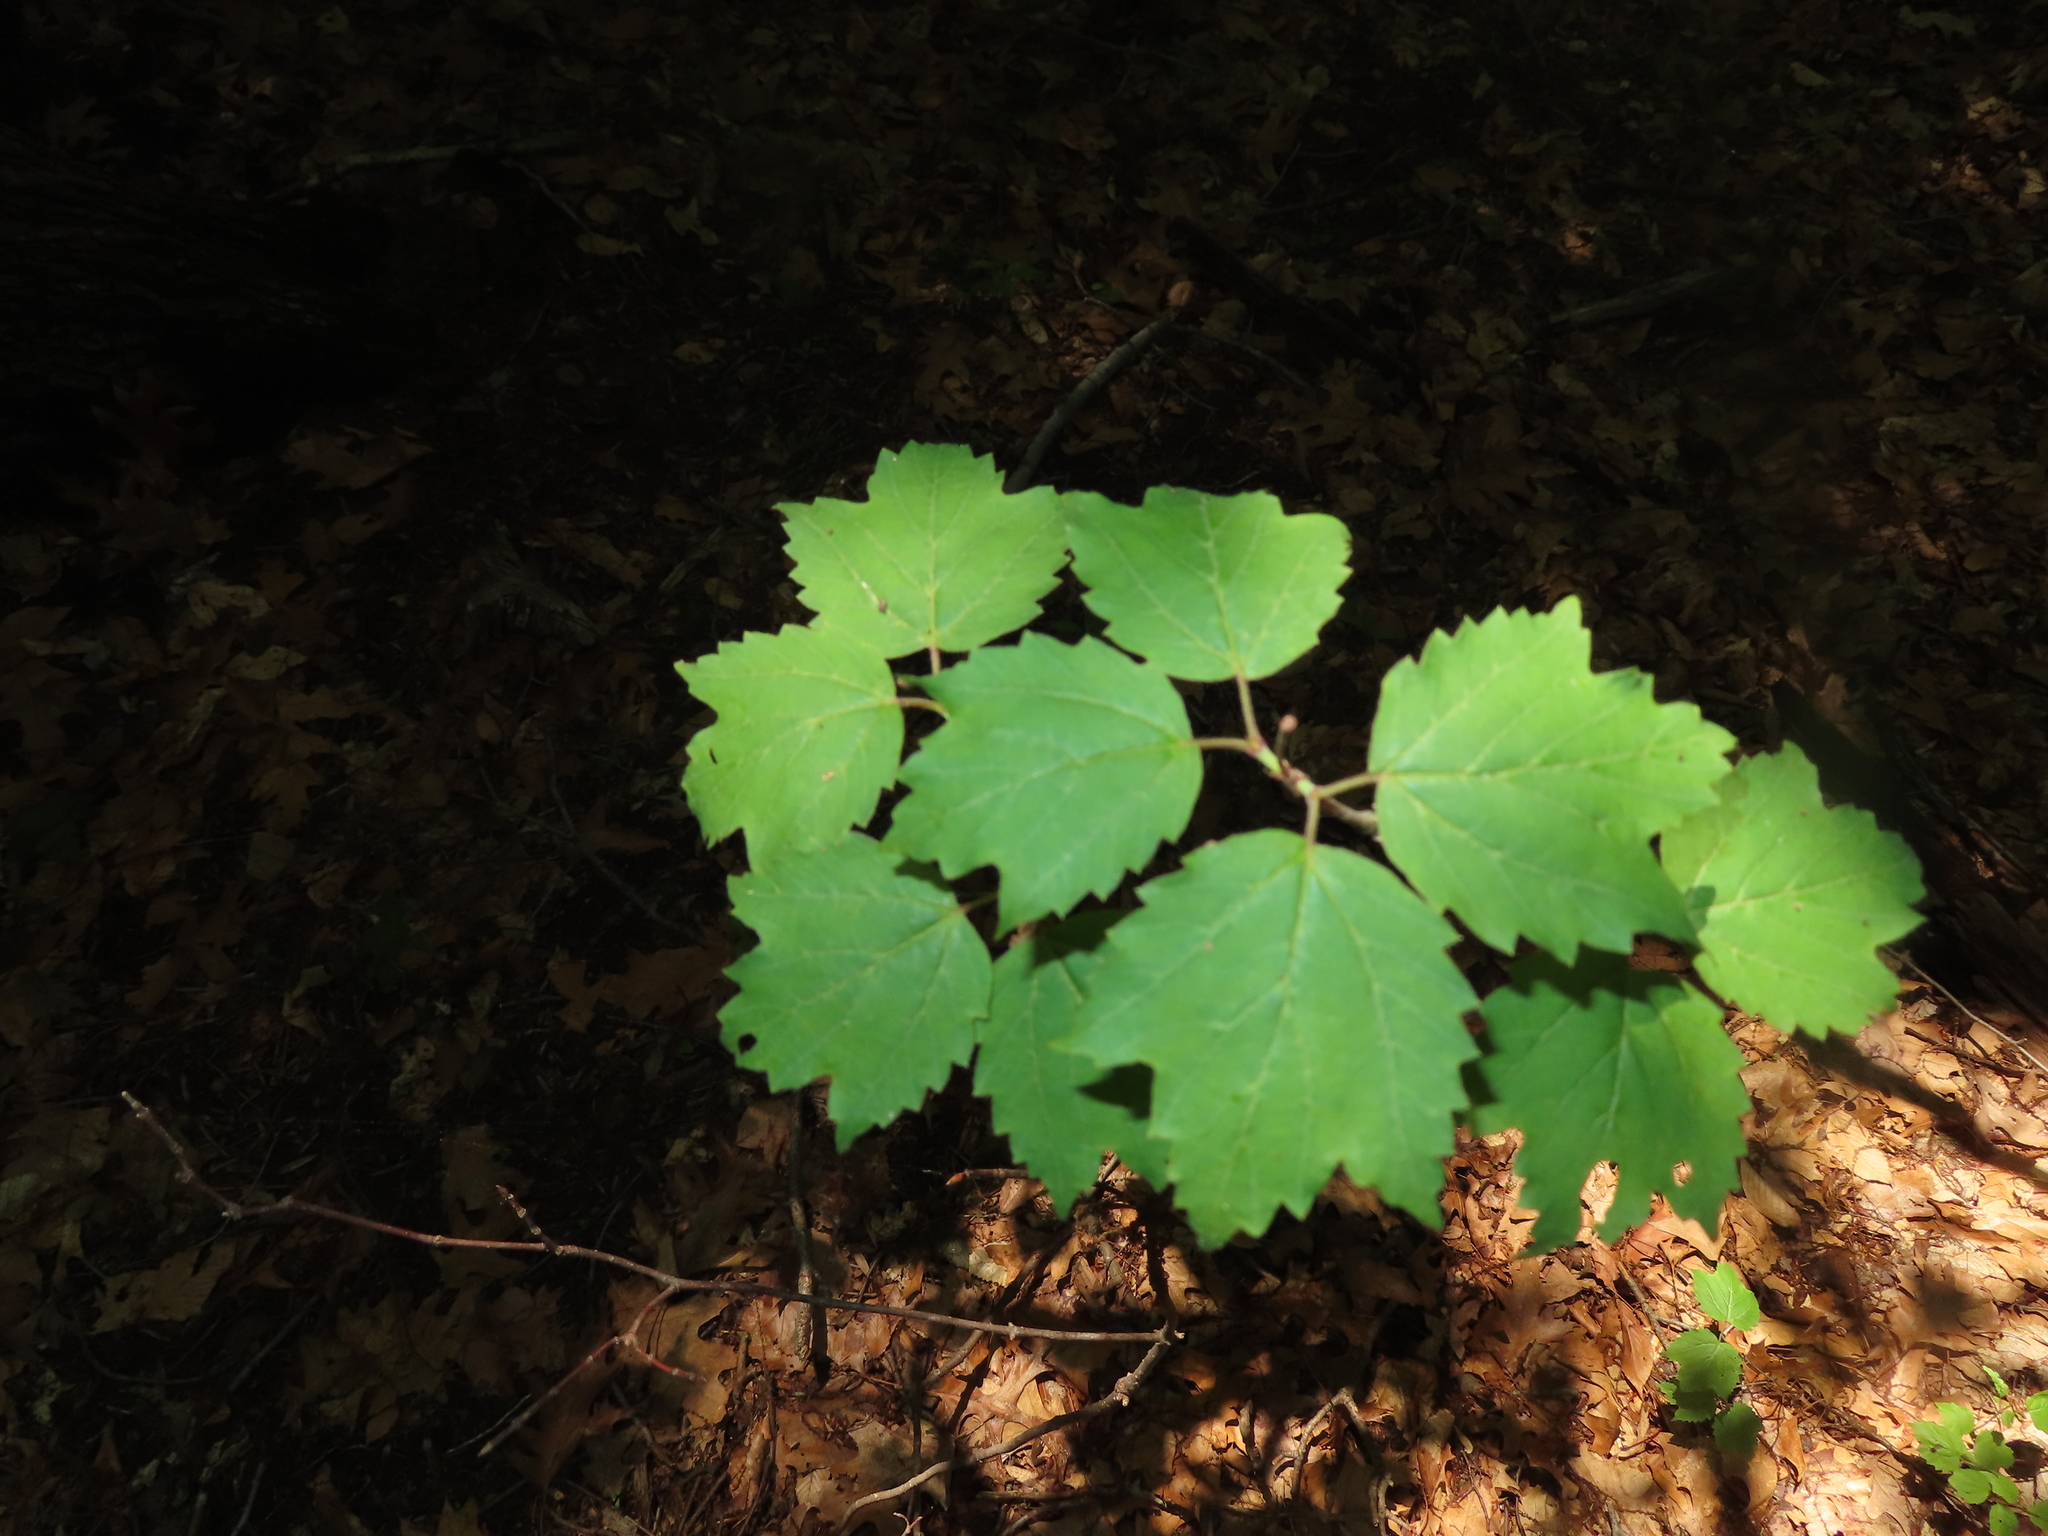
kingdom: Plantae
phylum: Tracheophyta
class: Magnoliopsida
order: Dipsacales
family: Viburnaceae
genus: Viburnum
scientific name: Viburnum acerifolium
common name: Dockmackie
